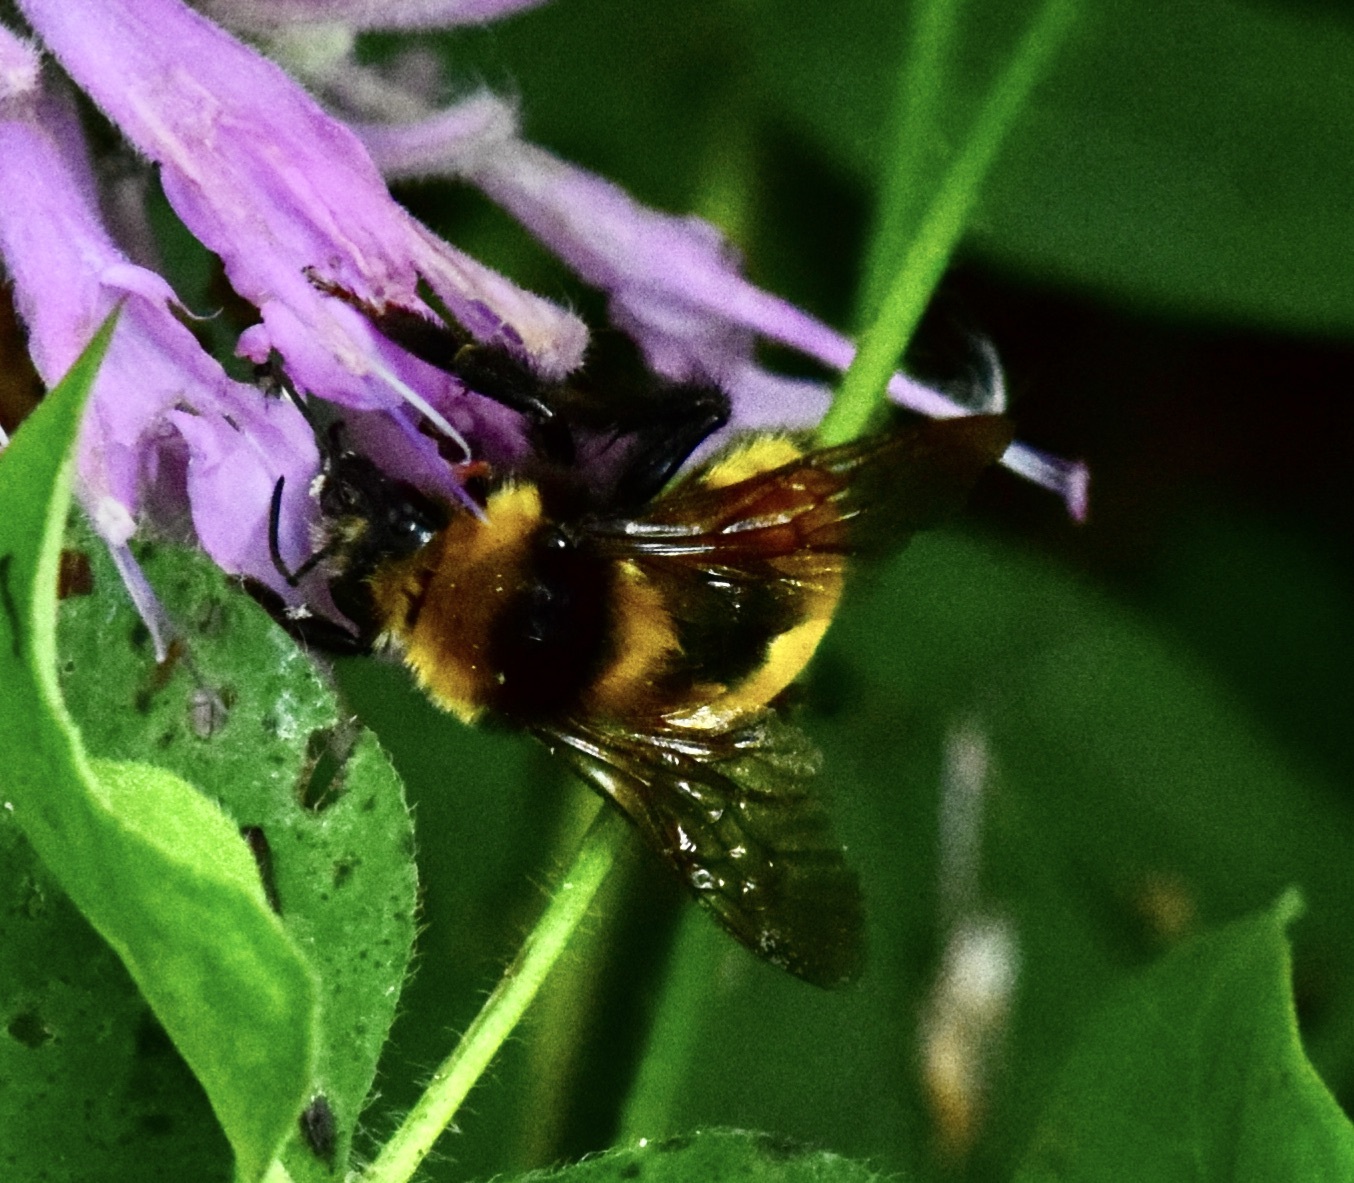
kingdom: Animalia
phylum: Arthropoda
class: Insecta
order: Hymenoptera
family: Apidae
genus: Bombus
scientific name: Bombus borealis
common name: Northern amber bumble bee
